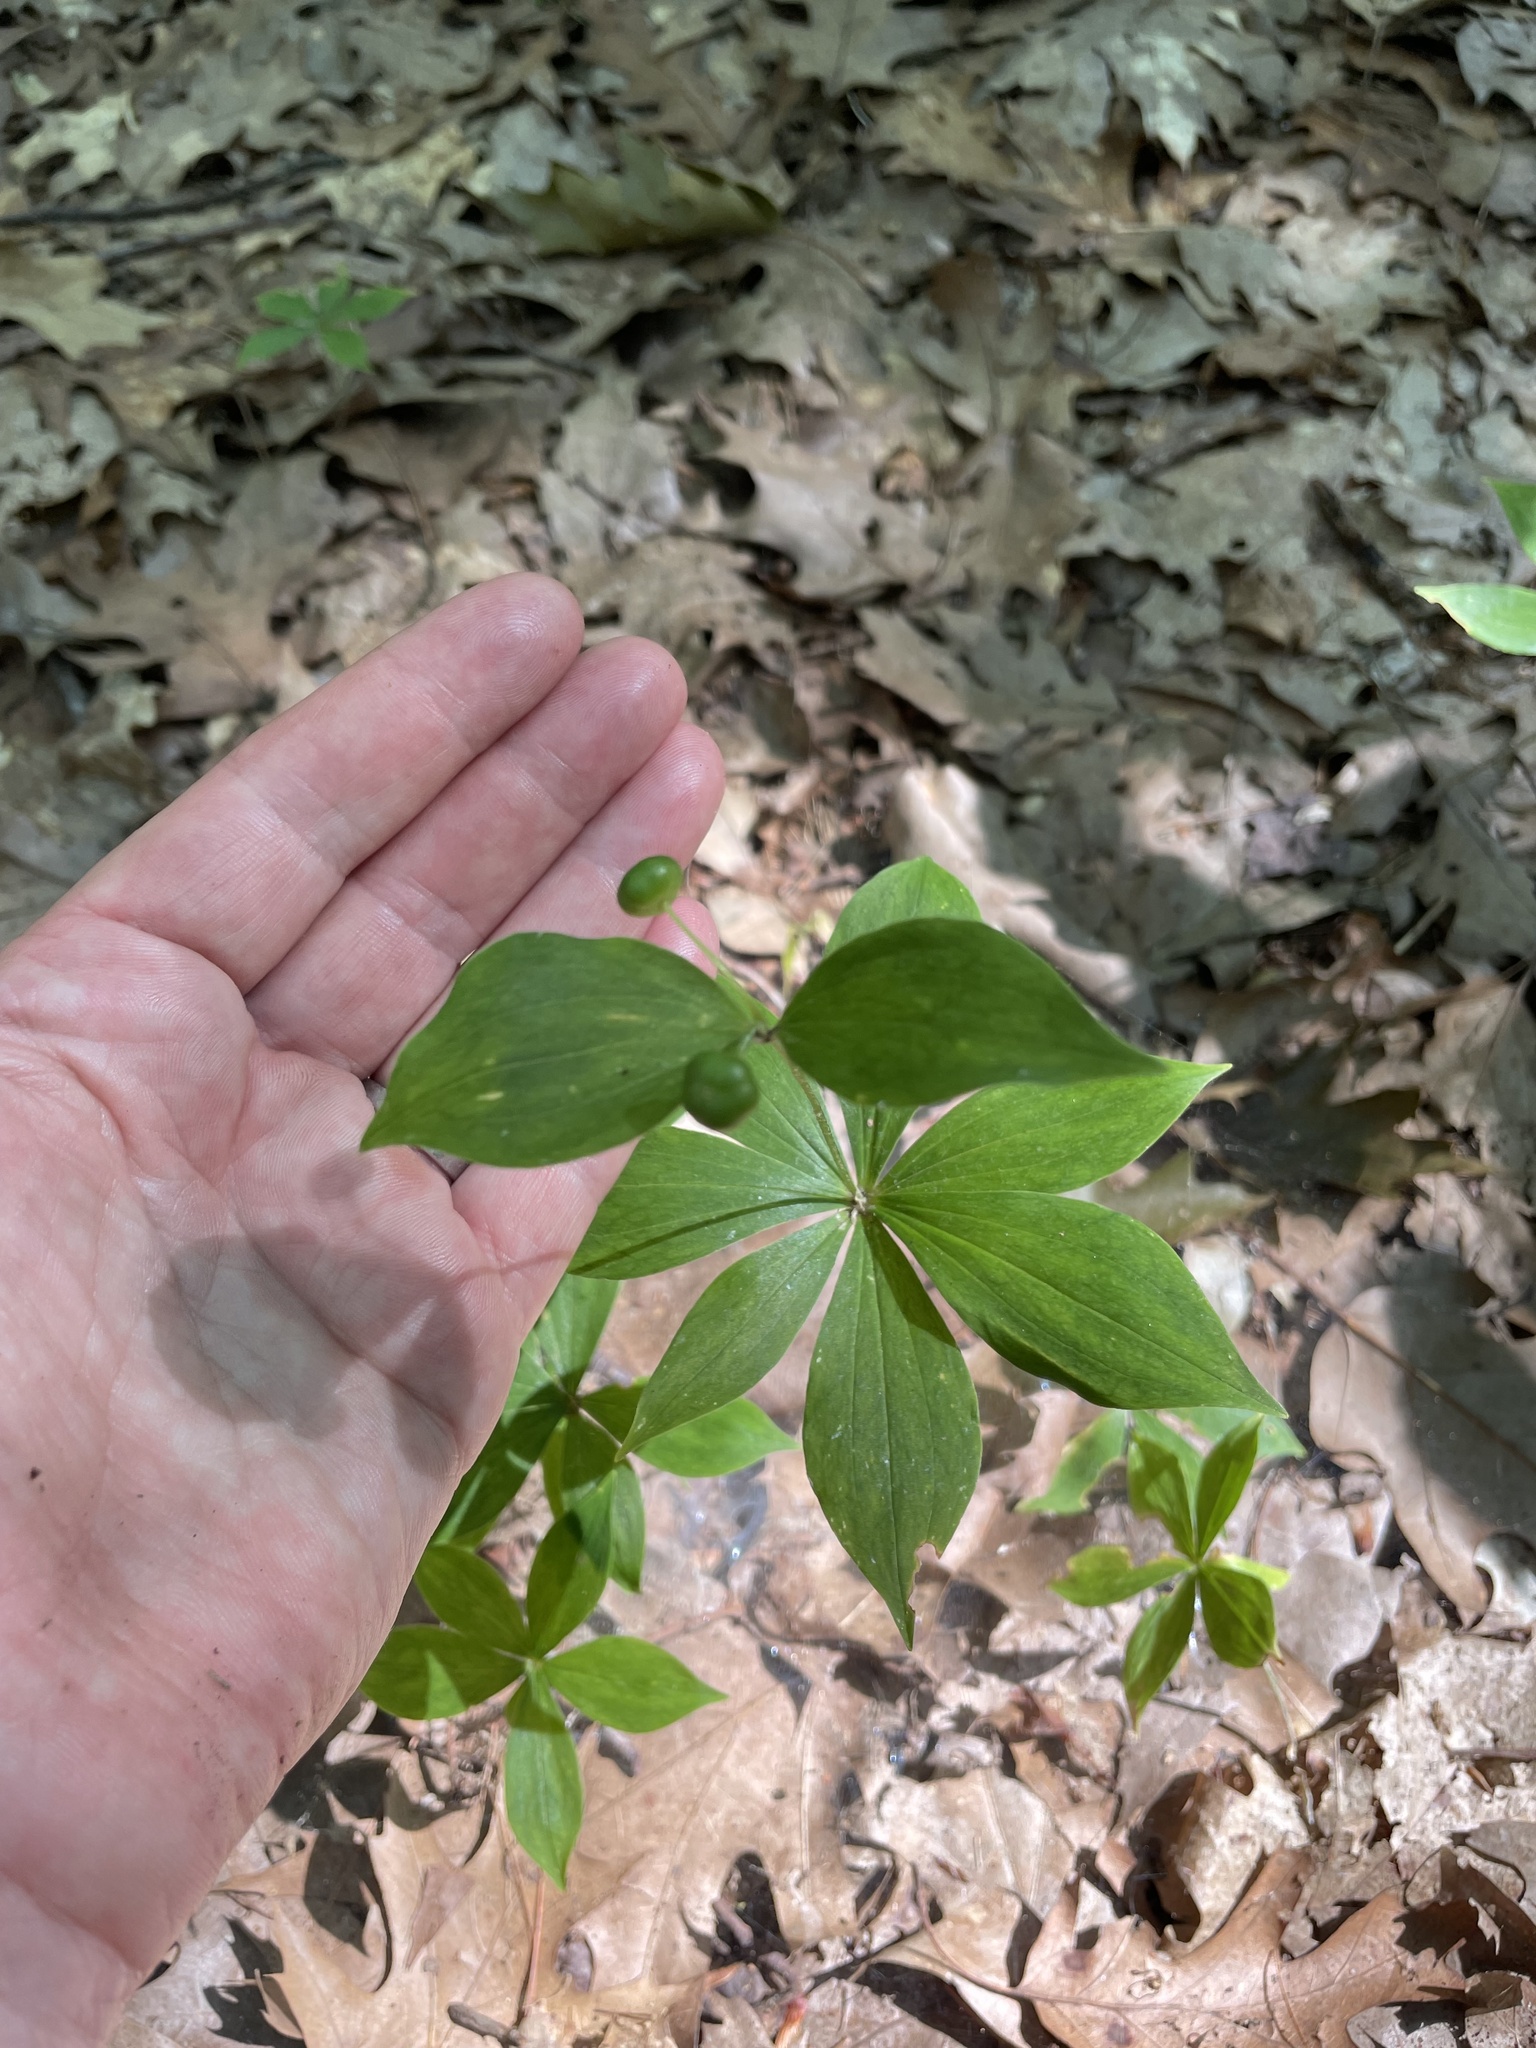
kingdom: Plantae
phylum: Tracheophyta
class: Liliopsida
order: Liliales
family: Liliaceae
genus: Medeola
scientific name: Medeola virginiana
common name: Indian cucumber-root
